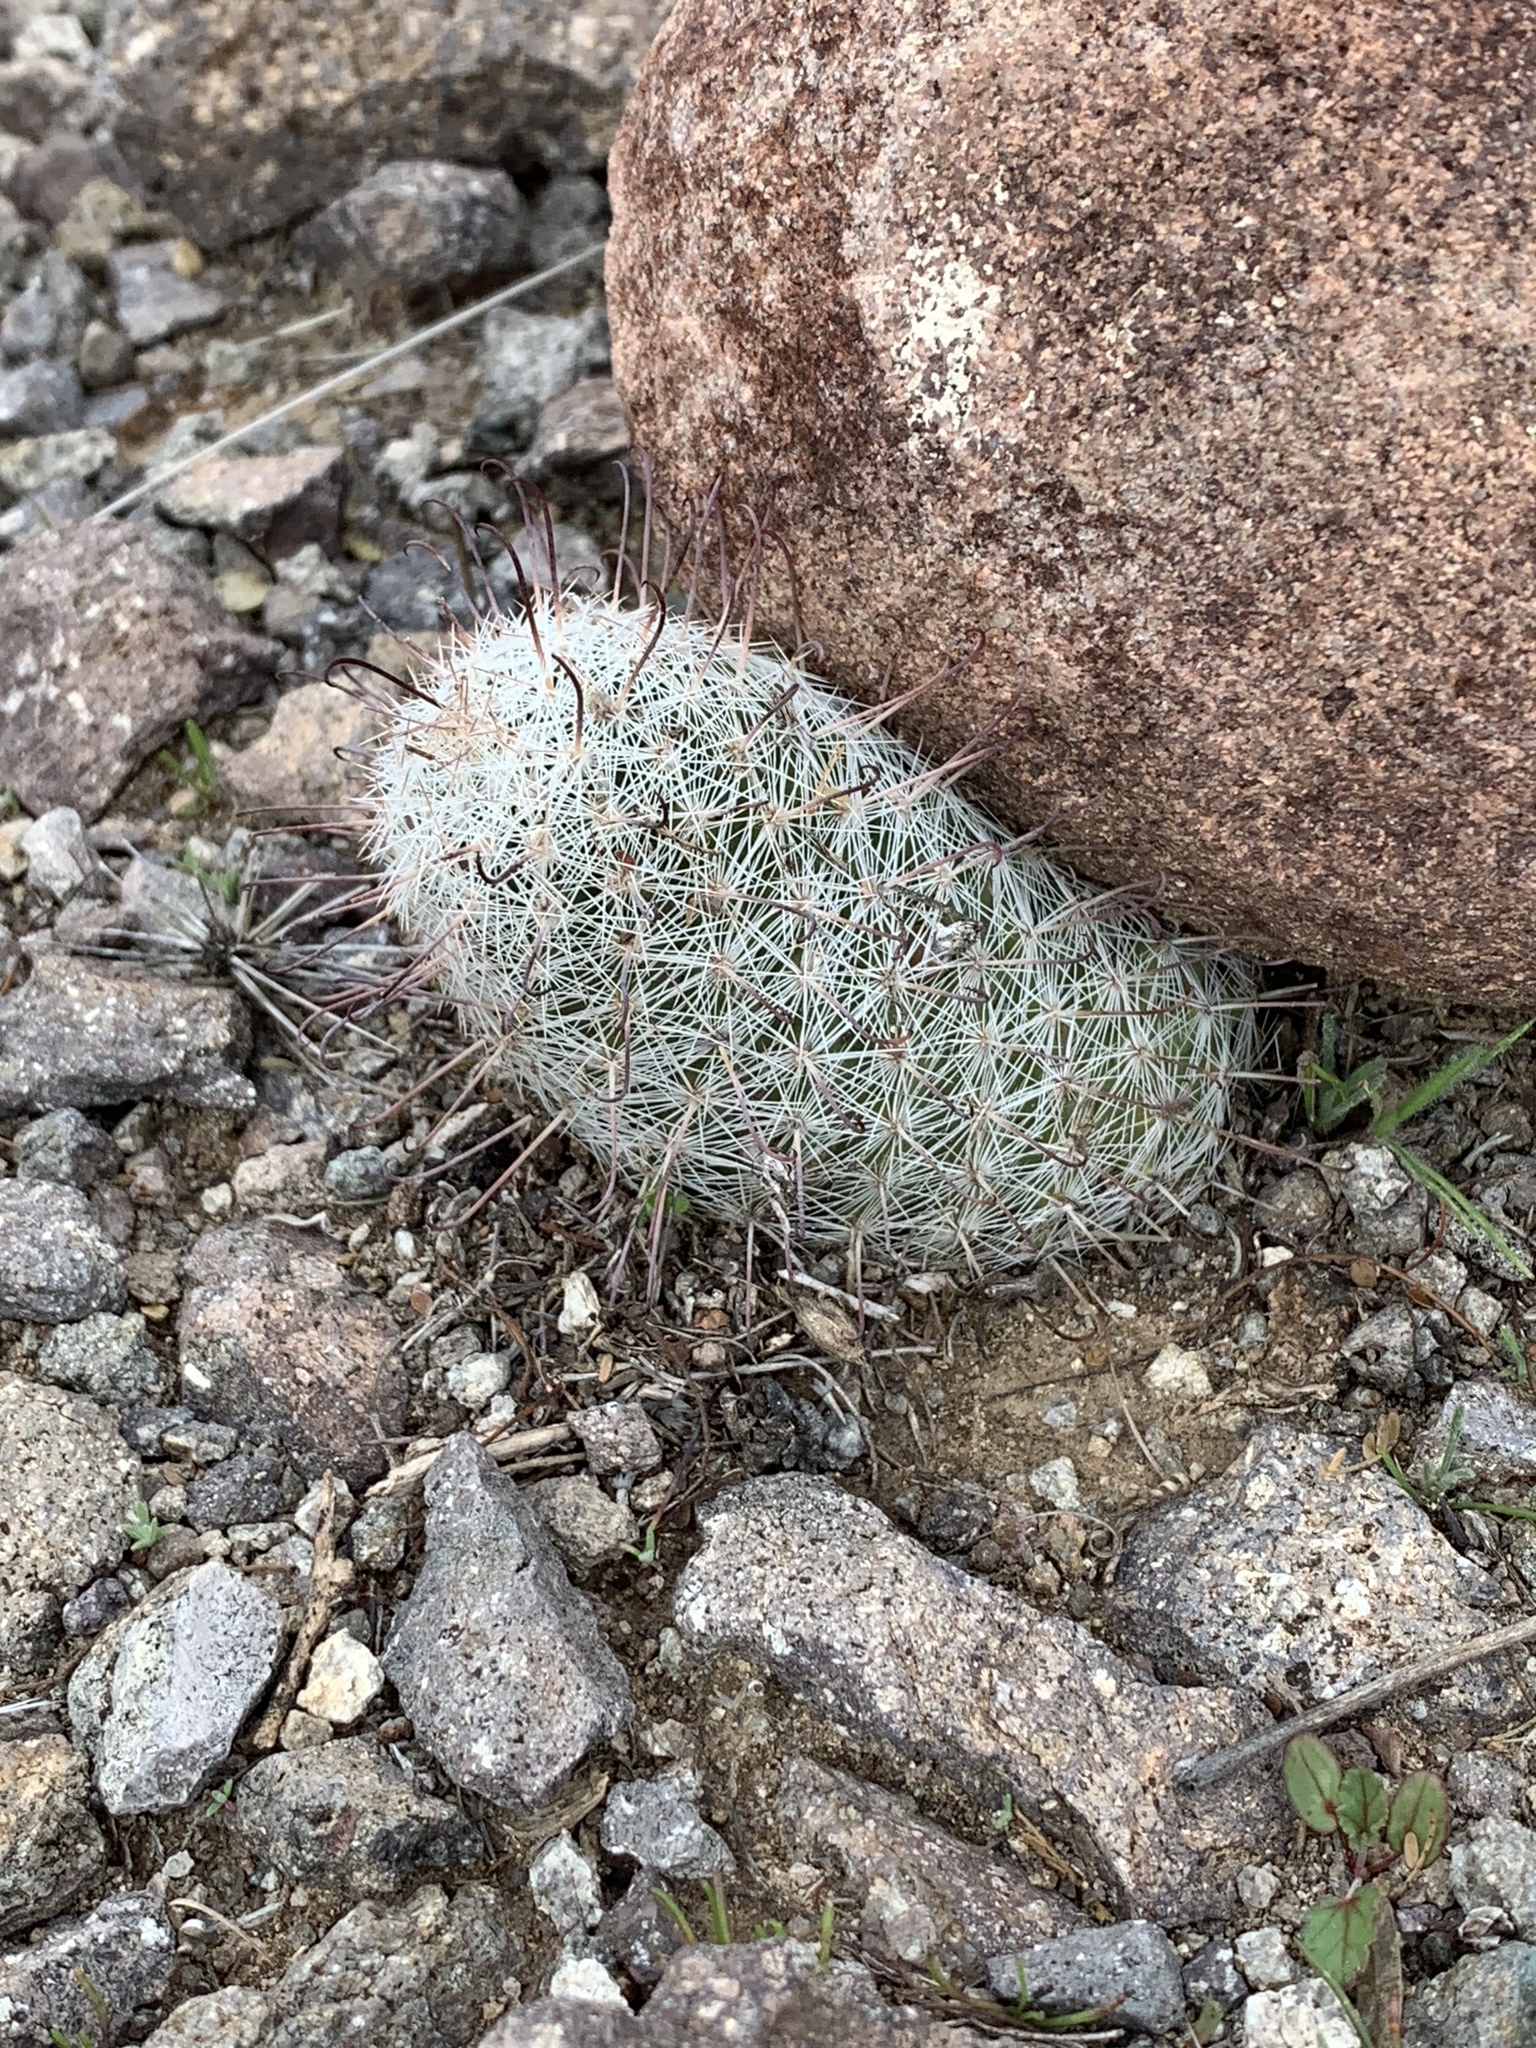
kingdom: Plantae
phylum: Tracheophyta
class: Magnoliopsida
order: Caryophyllales
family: Cactaceae
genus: Cochemiea
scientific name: Cochemiea grahamii
